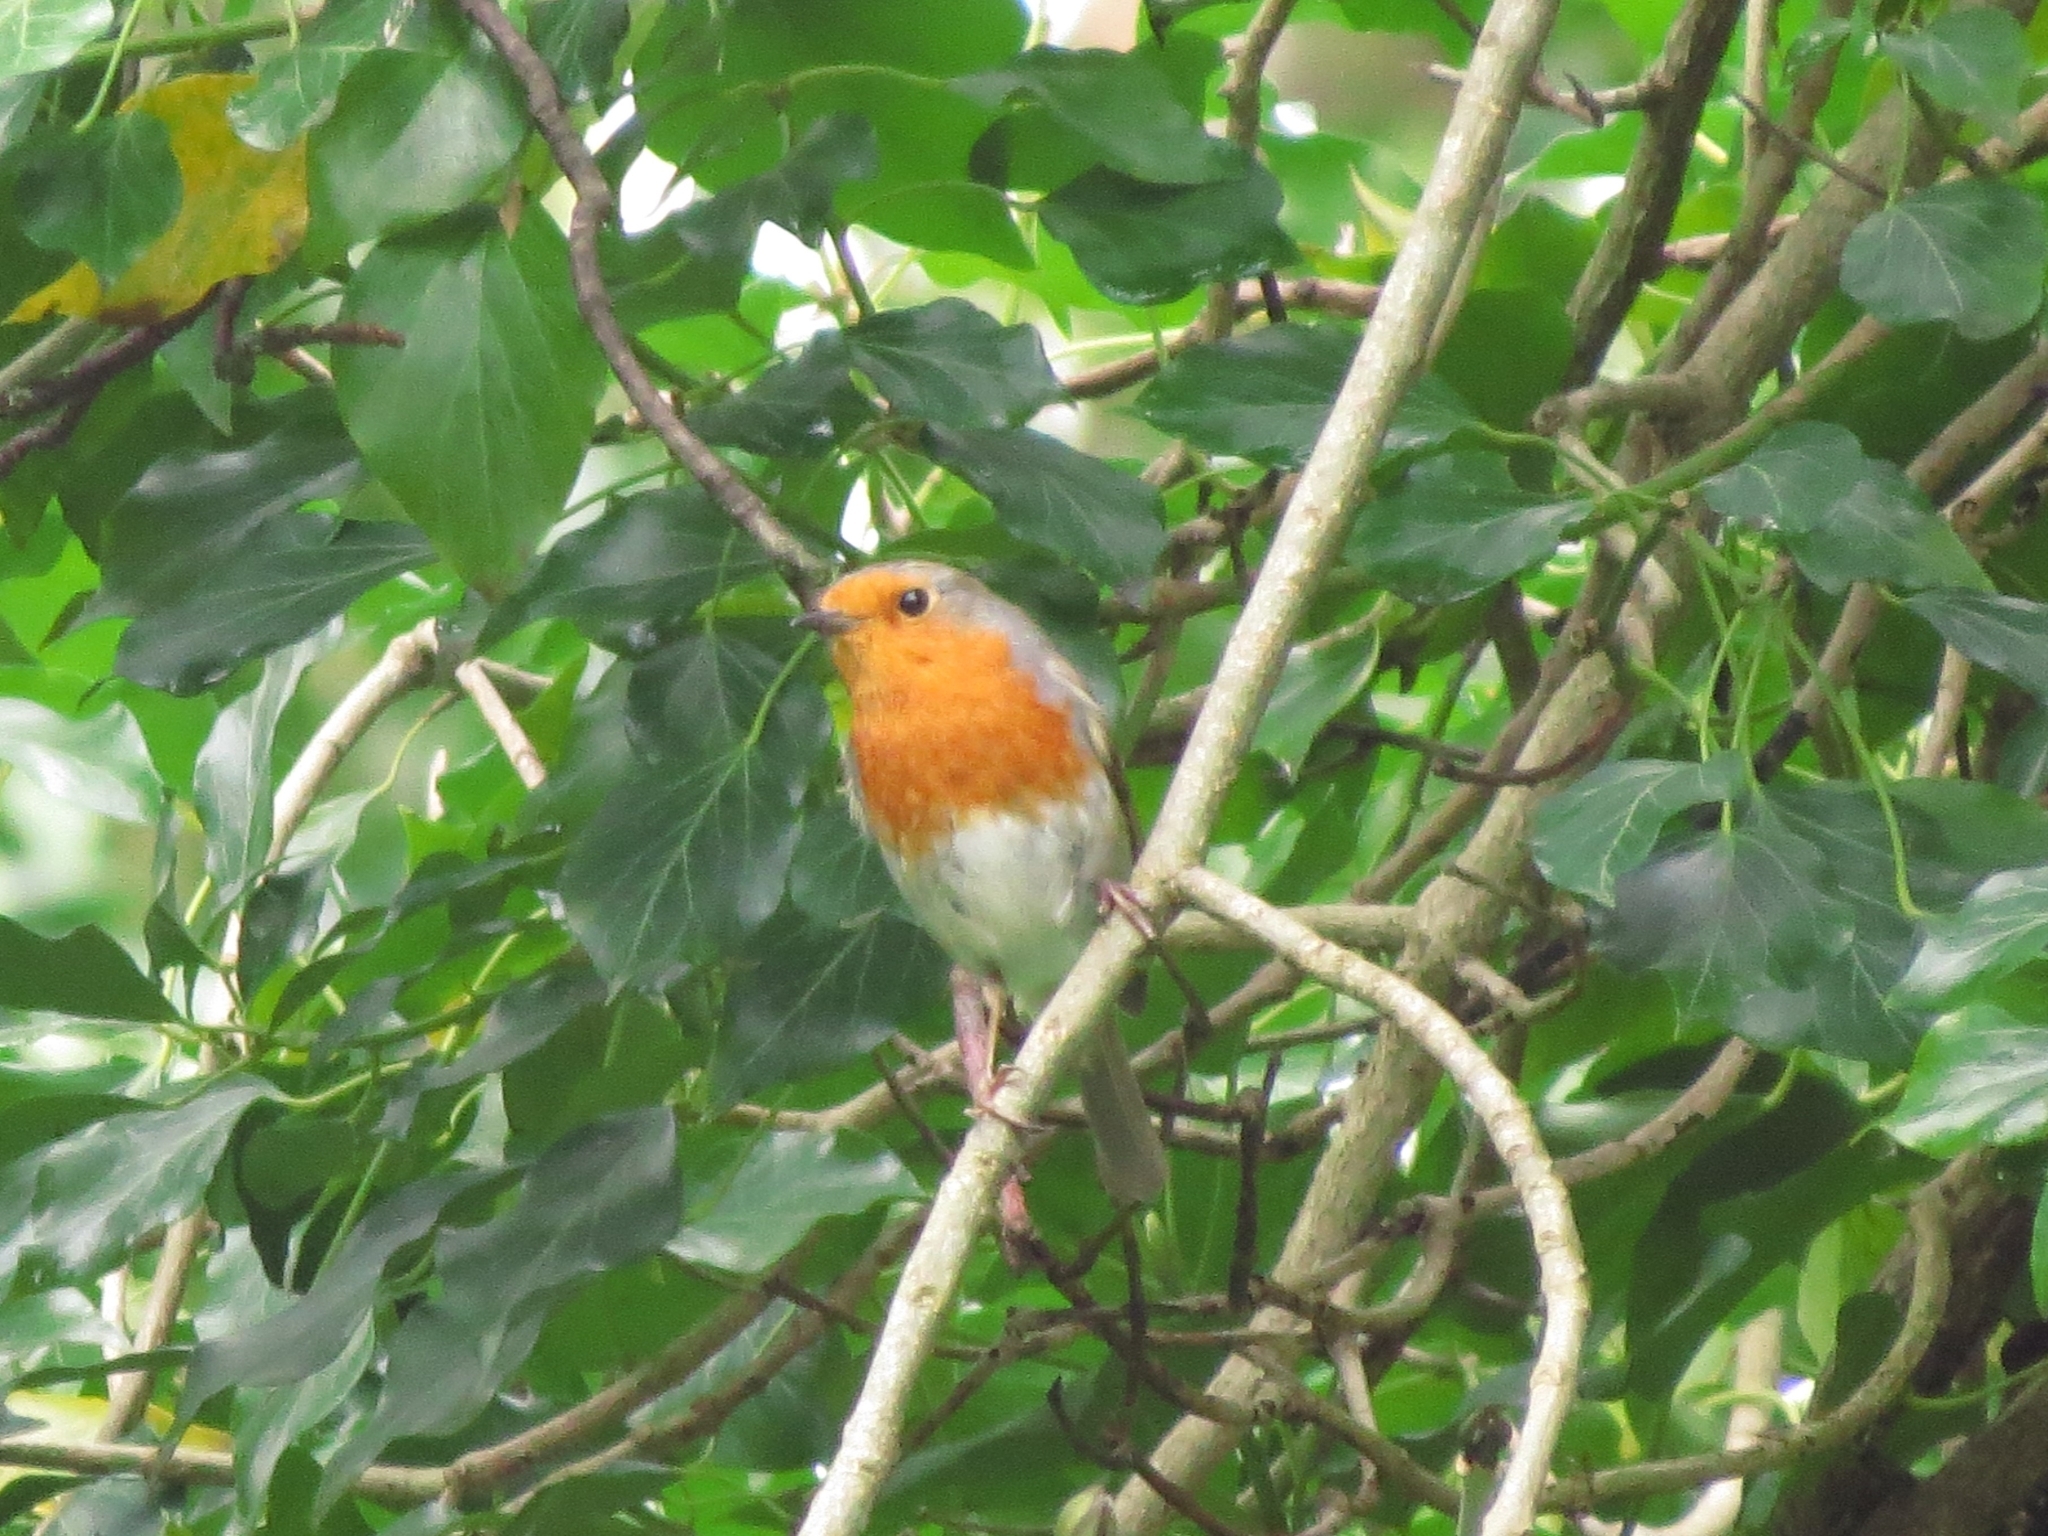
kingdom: Animalia
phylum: Chordata
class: Aves
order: Passeriformes
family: Muscicapidae
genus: Erithacus
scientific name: Erithacus rubecula
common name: European robin
